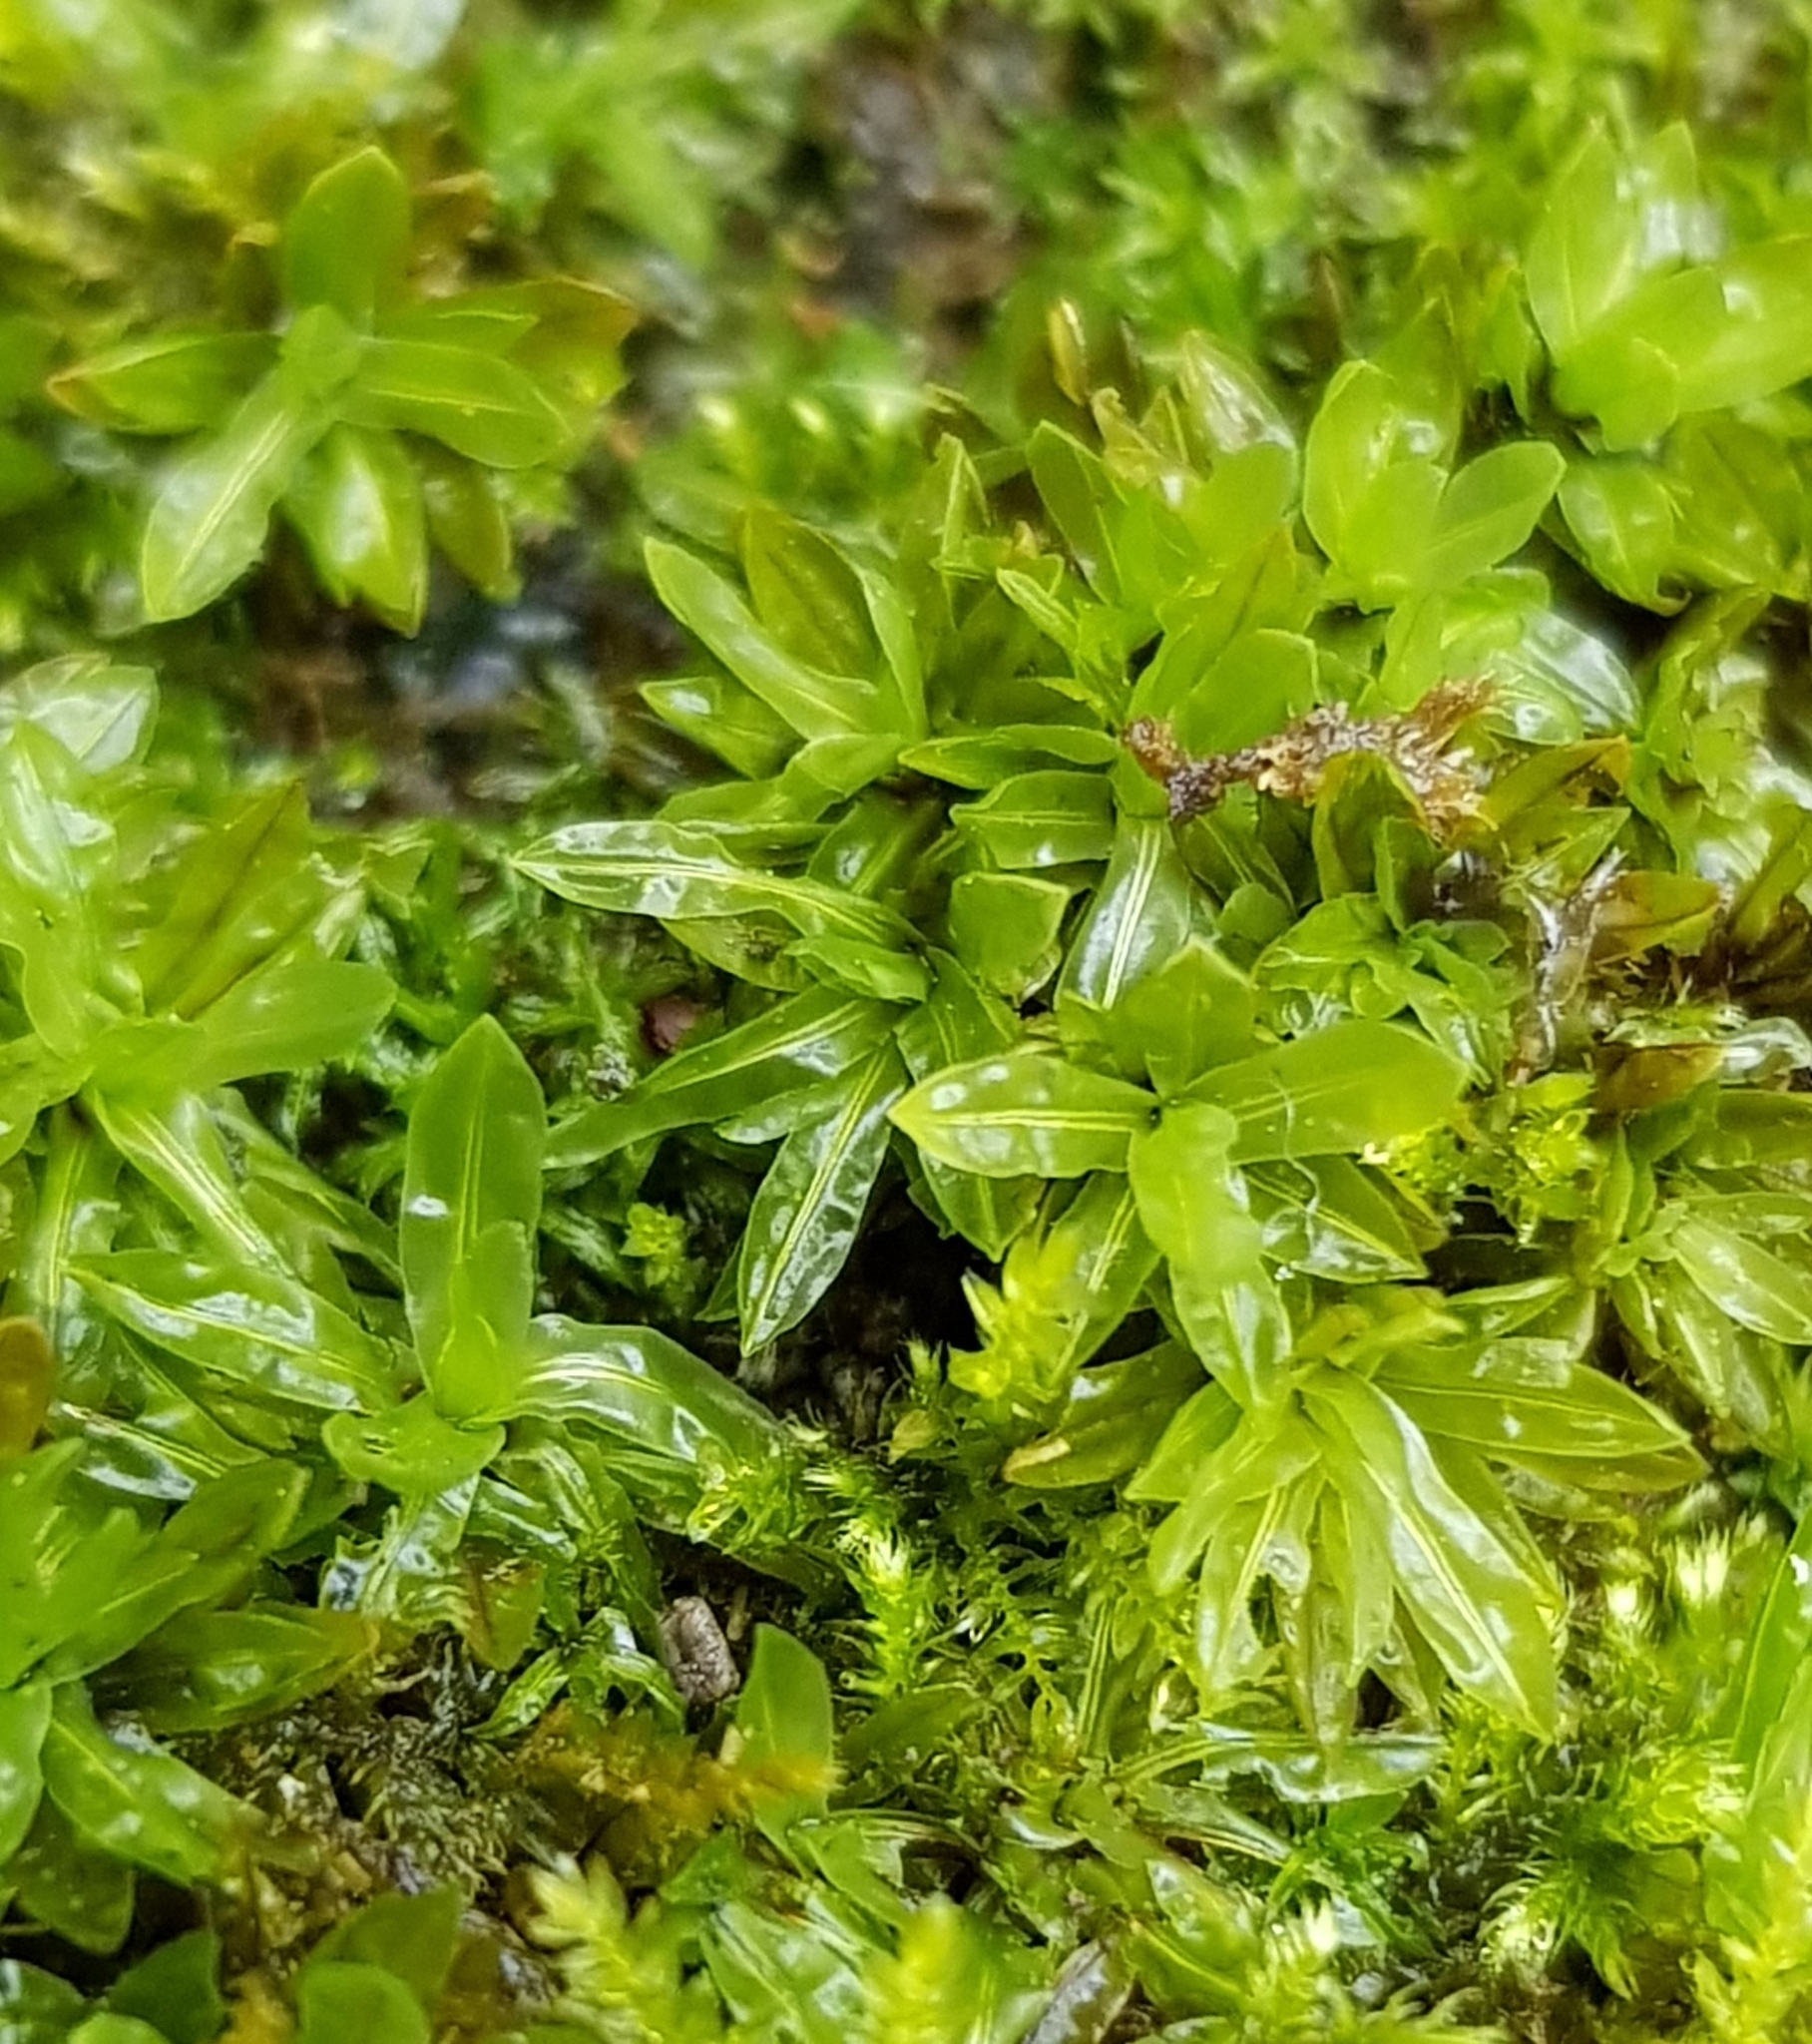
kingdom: Plantae
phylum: Bryophyta
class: Bryopsida
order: Encalyptales
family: Encalyptaceae
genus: Encalypta
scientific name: Encalypta streptocarpa
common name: Spiral extinguisher-moss
